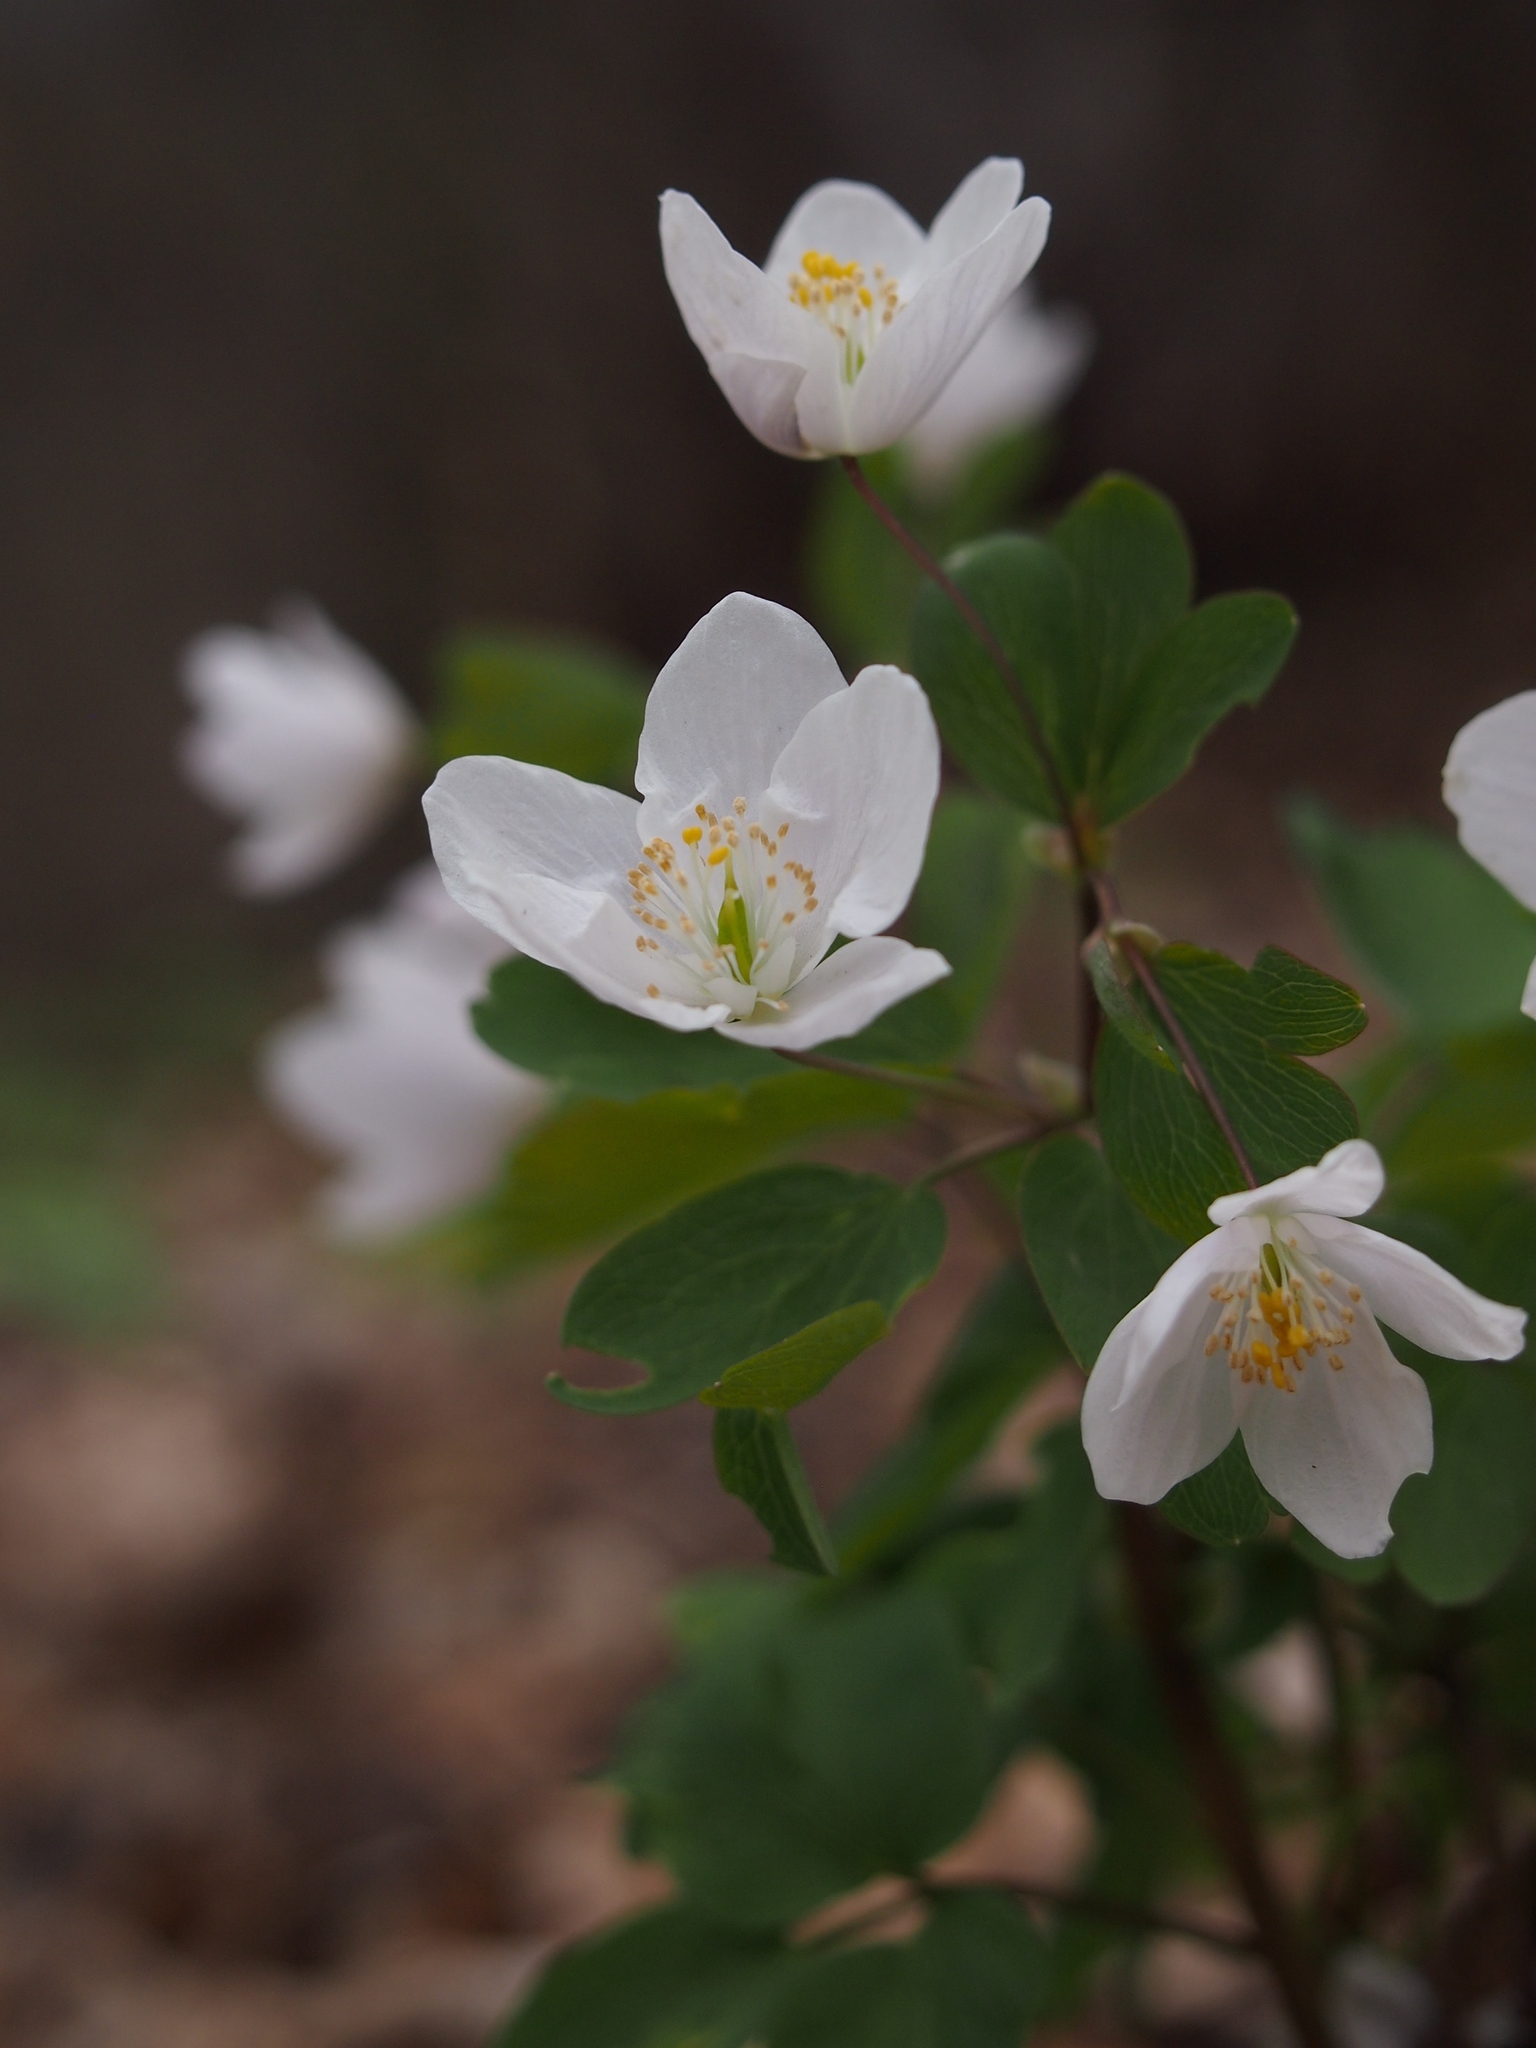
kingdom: Plantae
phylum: Tracheophyta
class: Magnoliopsida
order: Ranunculales
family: Ranunculaceae
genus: Isopyrum
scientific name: Isopyrum thalictroides
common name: Isopyrum
